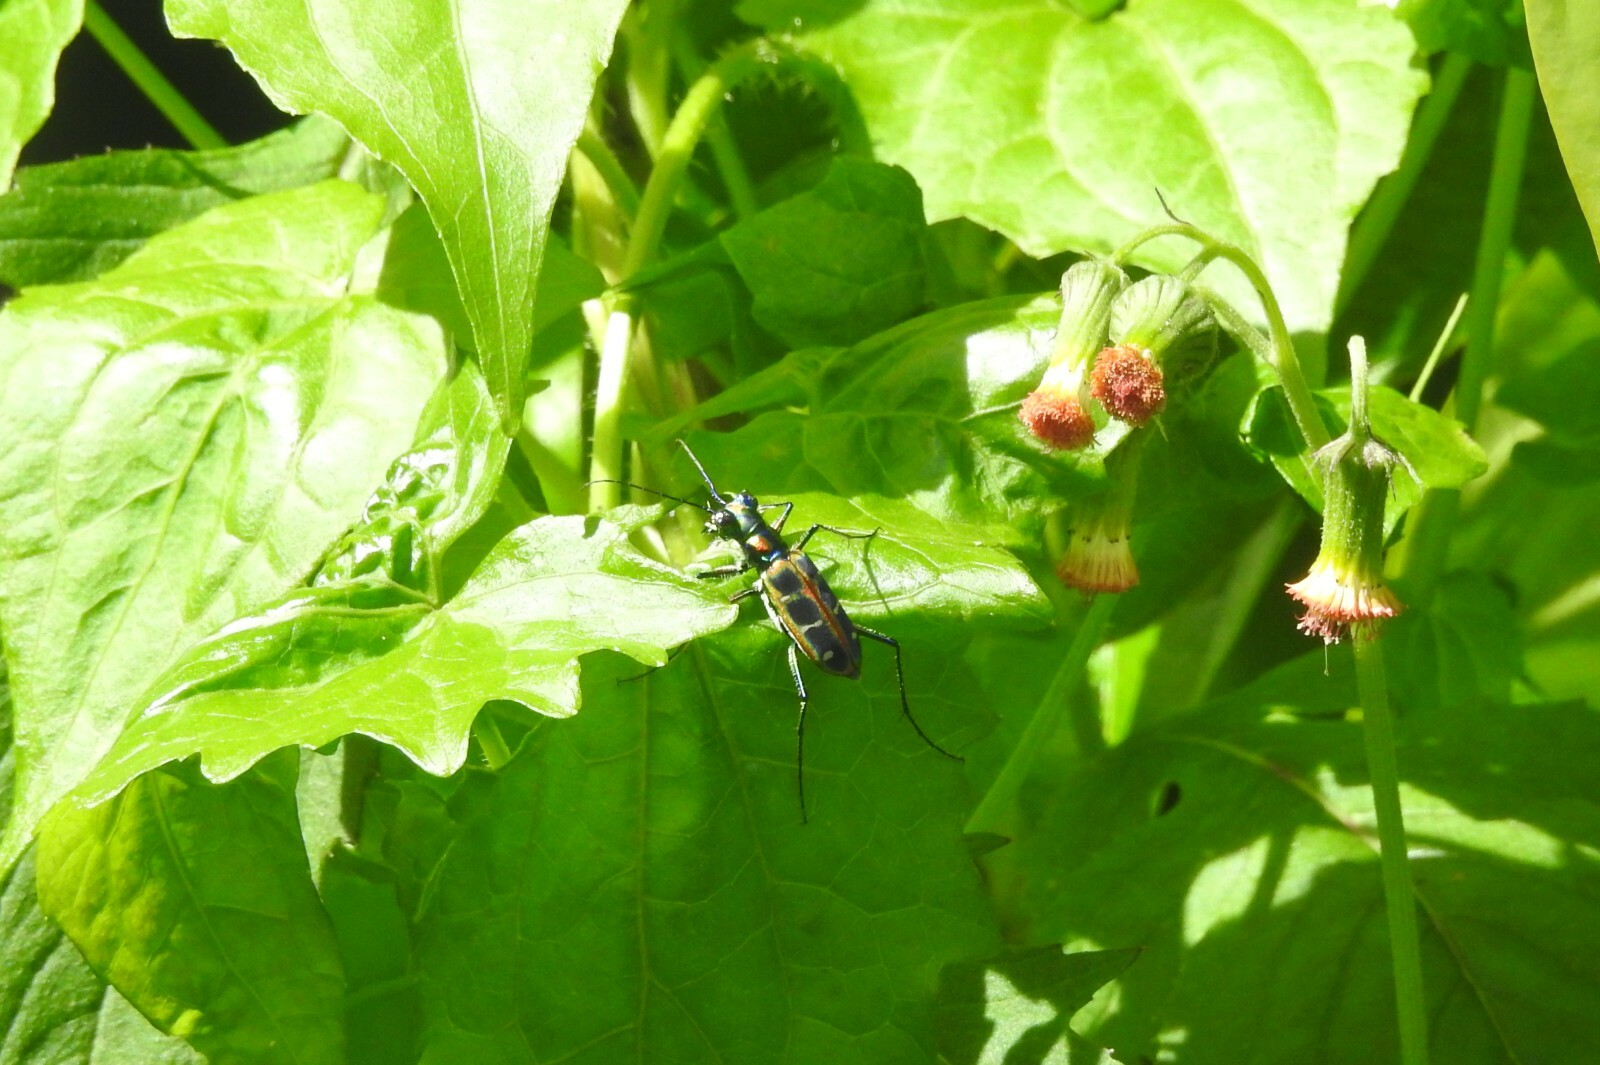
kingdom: Animalia
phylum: Arthropoda
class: Insecta
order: Coleoptera
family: Carabidae
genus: Cicindela
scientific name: Cicindela barmanica
